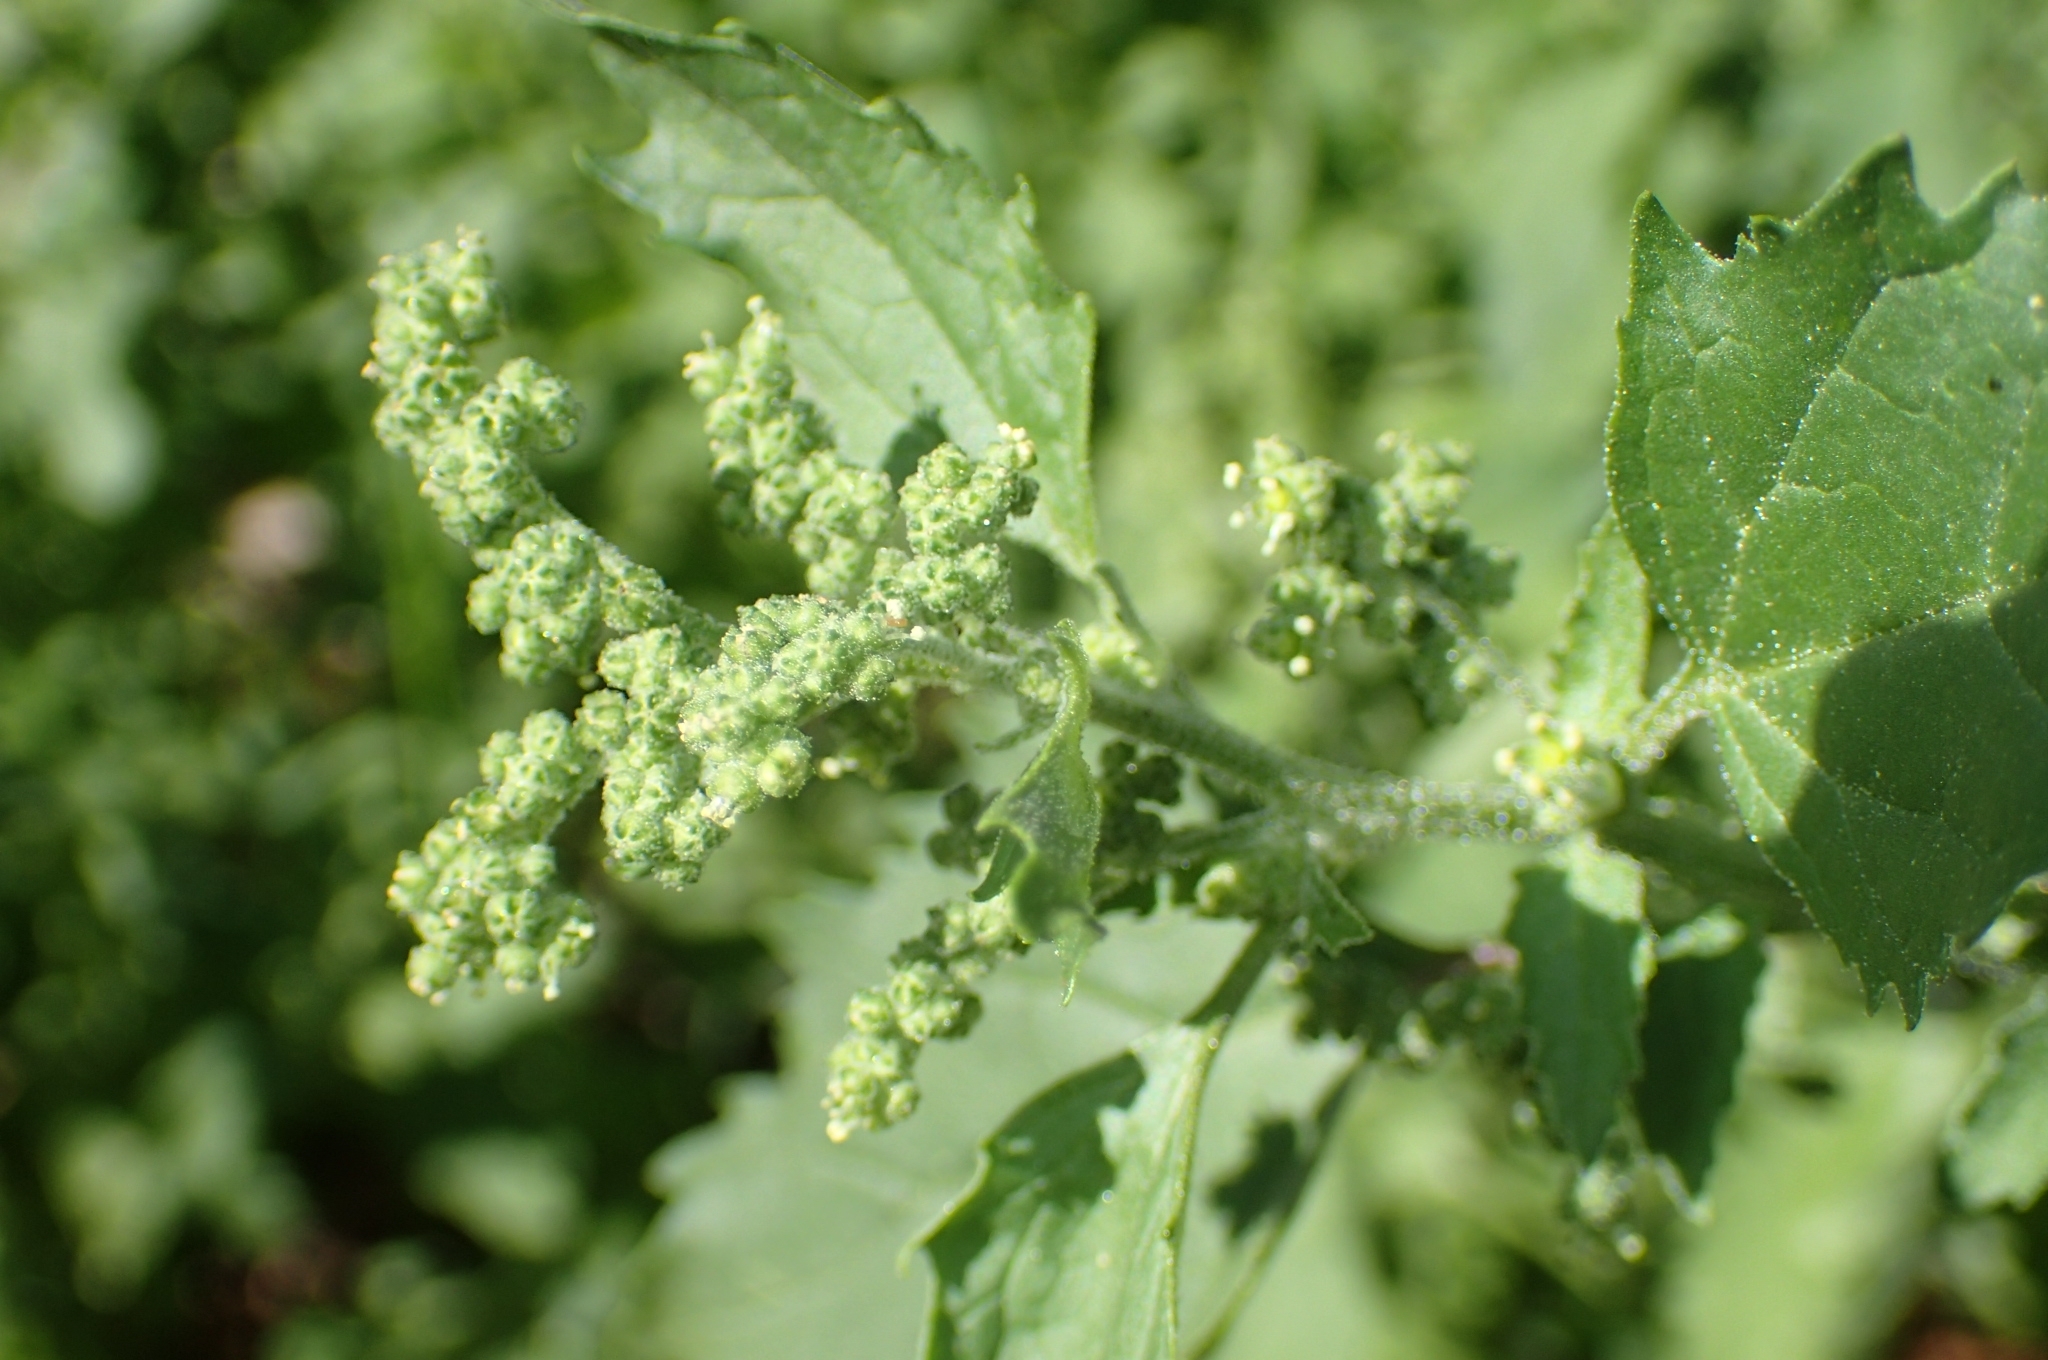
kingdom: Plantae
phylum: Tracheophyta
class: Magnoliopsida
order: Caryophyllales
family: Amaranthaceae
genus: Chenopodiastrum
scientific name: Chenopodiastrum murale
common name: Sowbane
